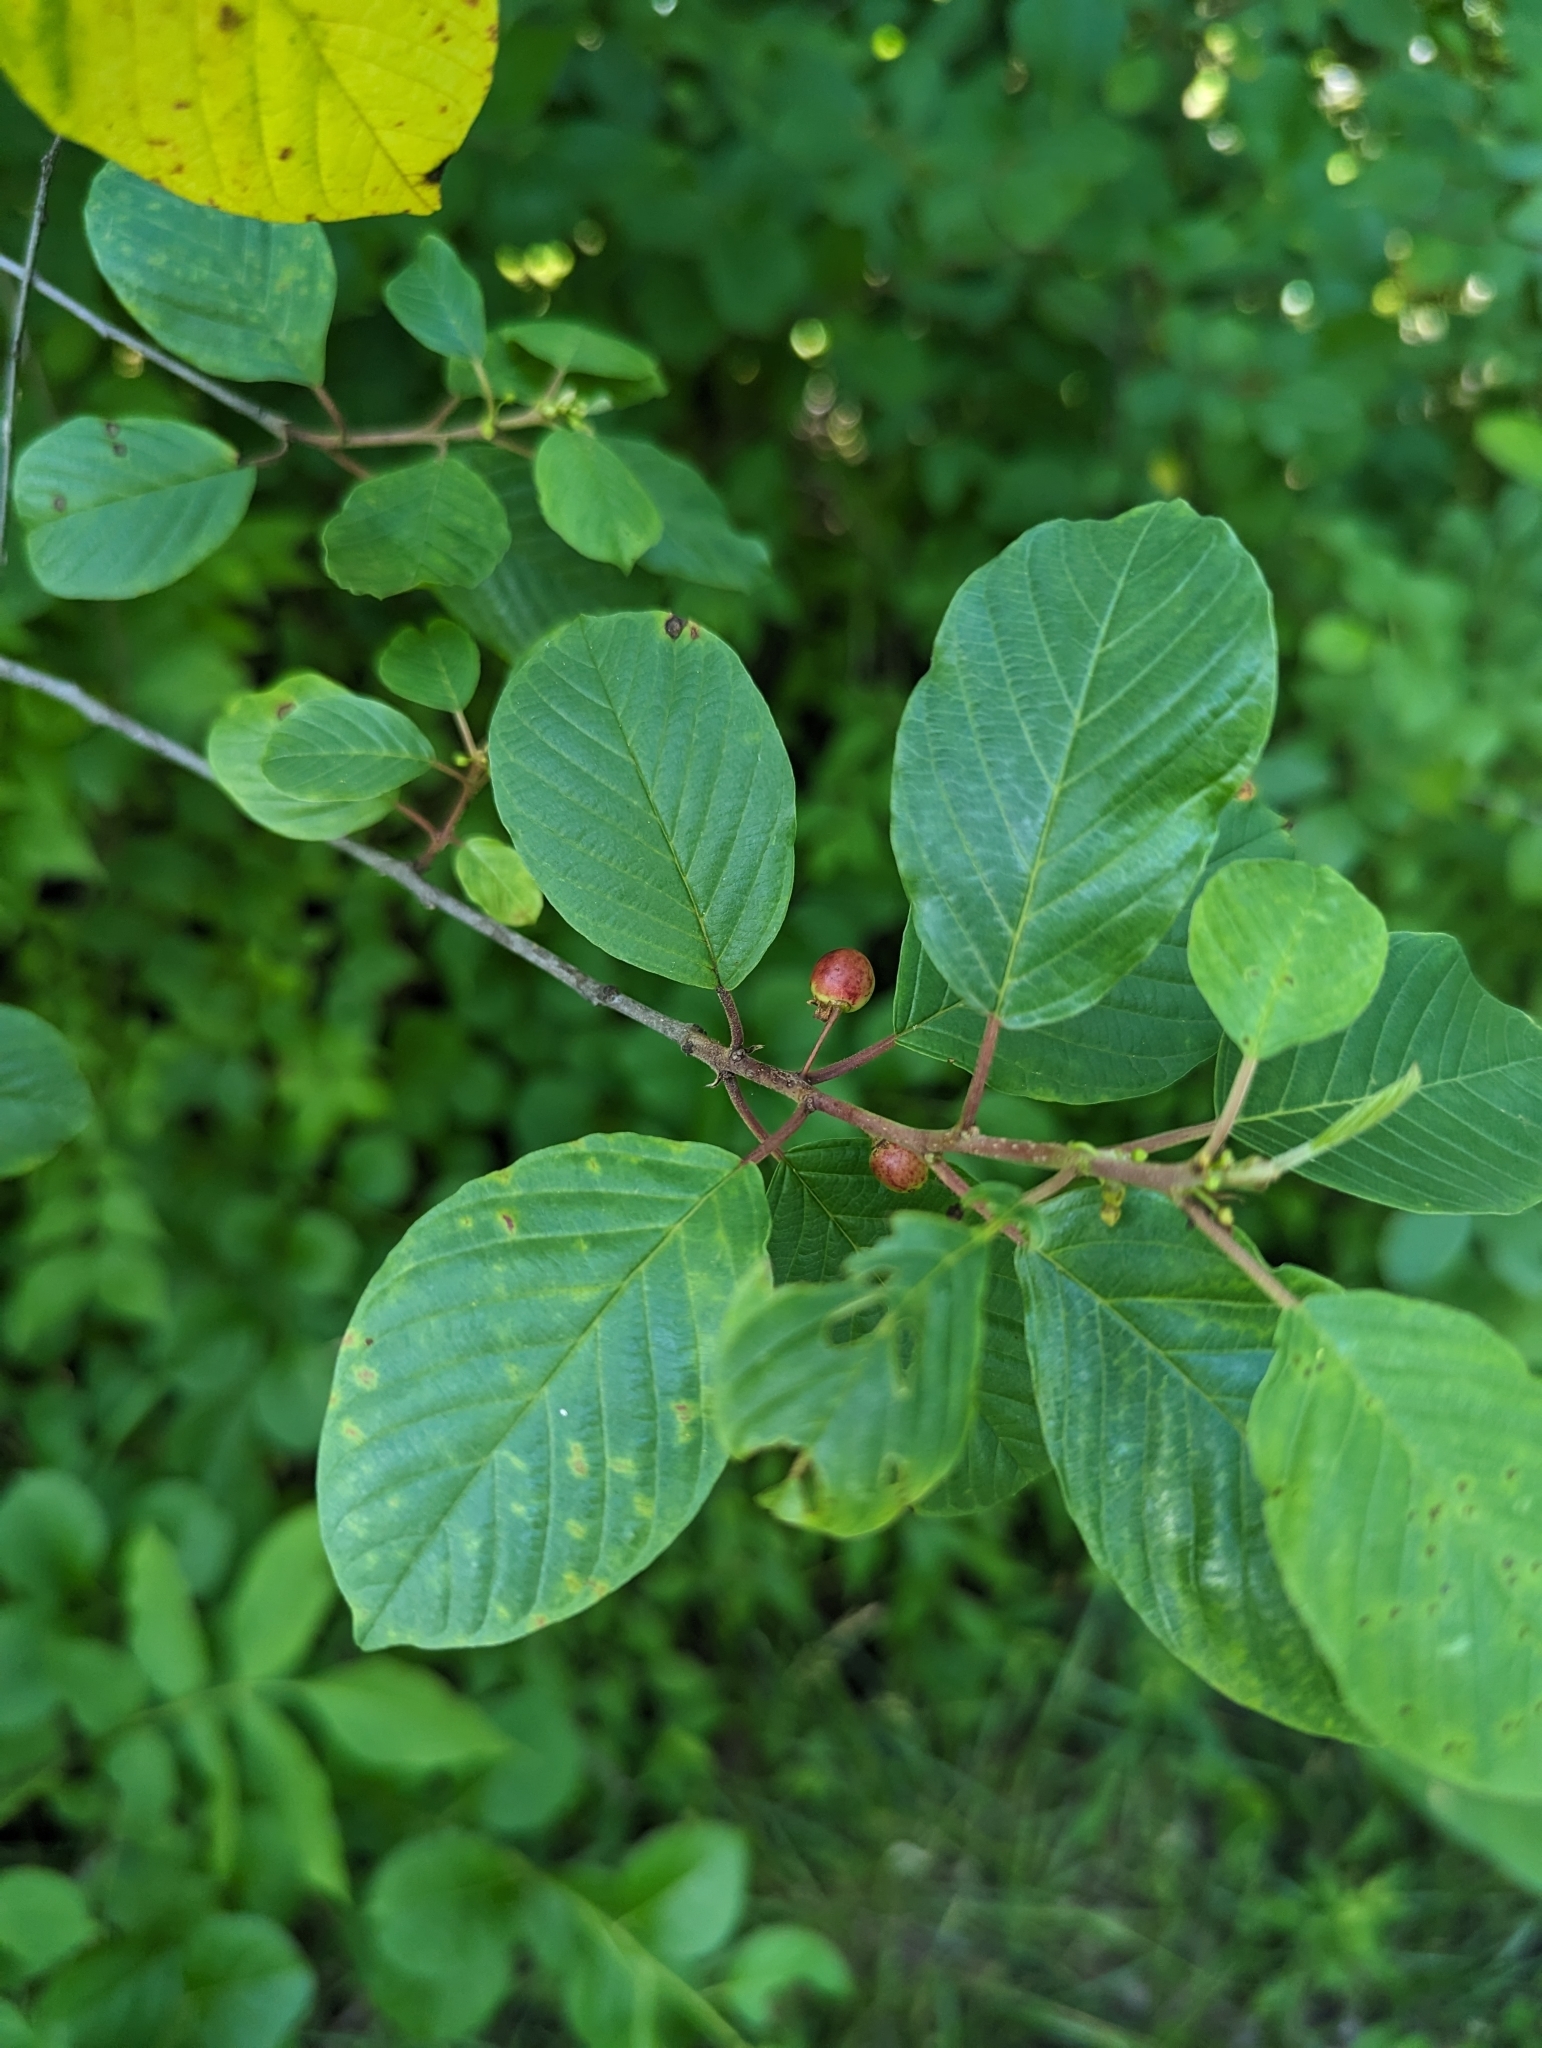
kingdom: Plantae
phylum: Tracheophyta
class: Magnoliopsida
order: Rosales
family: Rhamnaceae
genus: Frangula
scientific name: Frangula alnus
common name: Alder buckthorn
